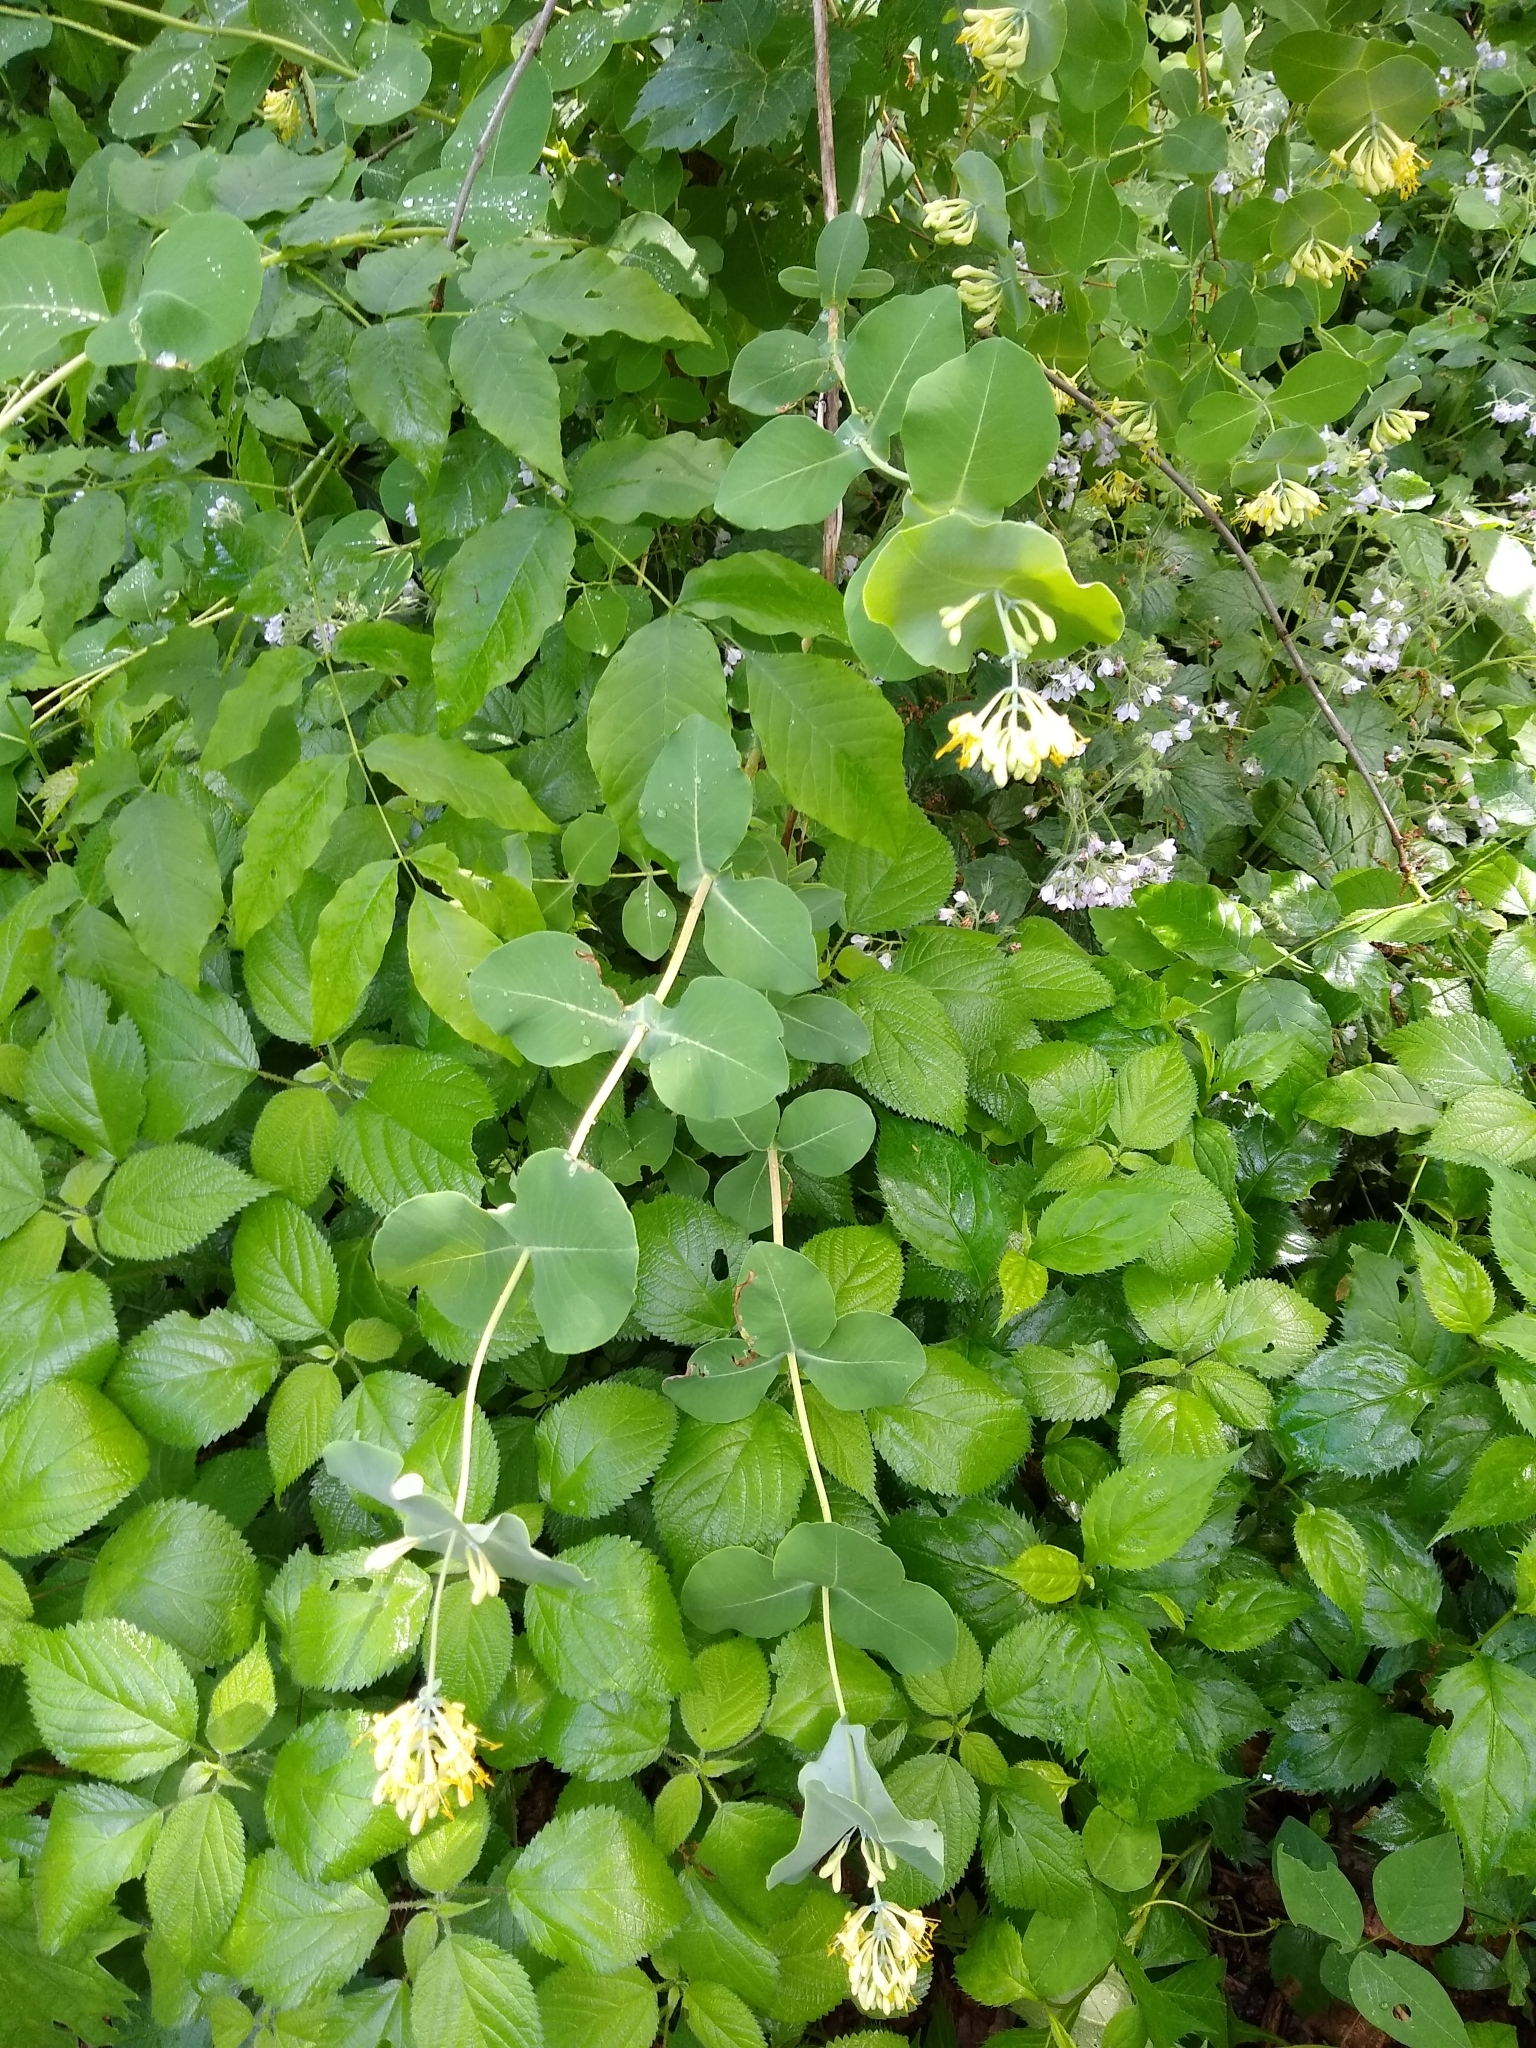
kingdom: Plantae
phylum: Tracheophyta
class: Magnoliopsida
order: Dipsacales
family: Caprifoliaceae
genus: Lonicera
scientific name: Lonicera reticulata
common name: Grape honeysuckle
